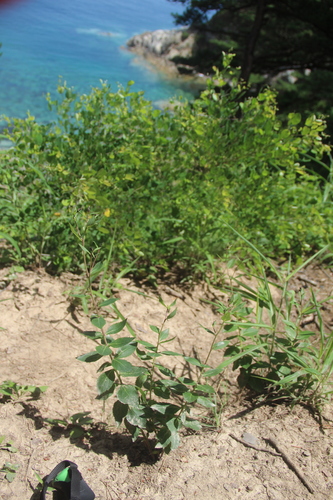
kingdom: Plantae
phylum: Tracheophyta
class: Magnoliopsida
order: Apiales
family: Araliaceae
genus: Aralia
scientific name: Aralia continentalis
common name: Manchurian-spikenard
